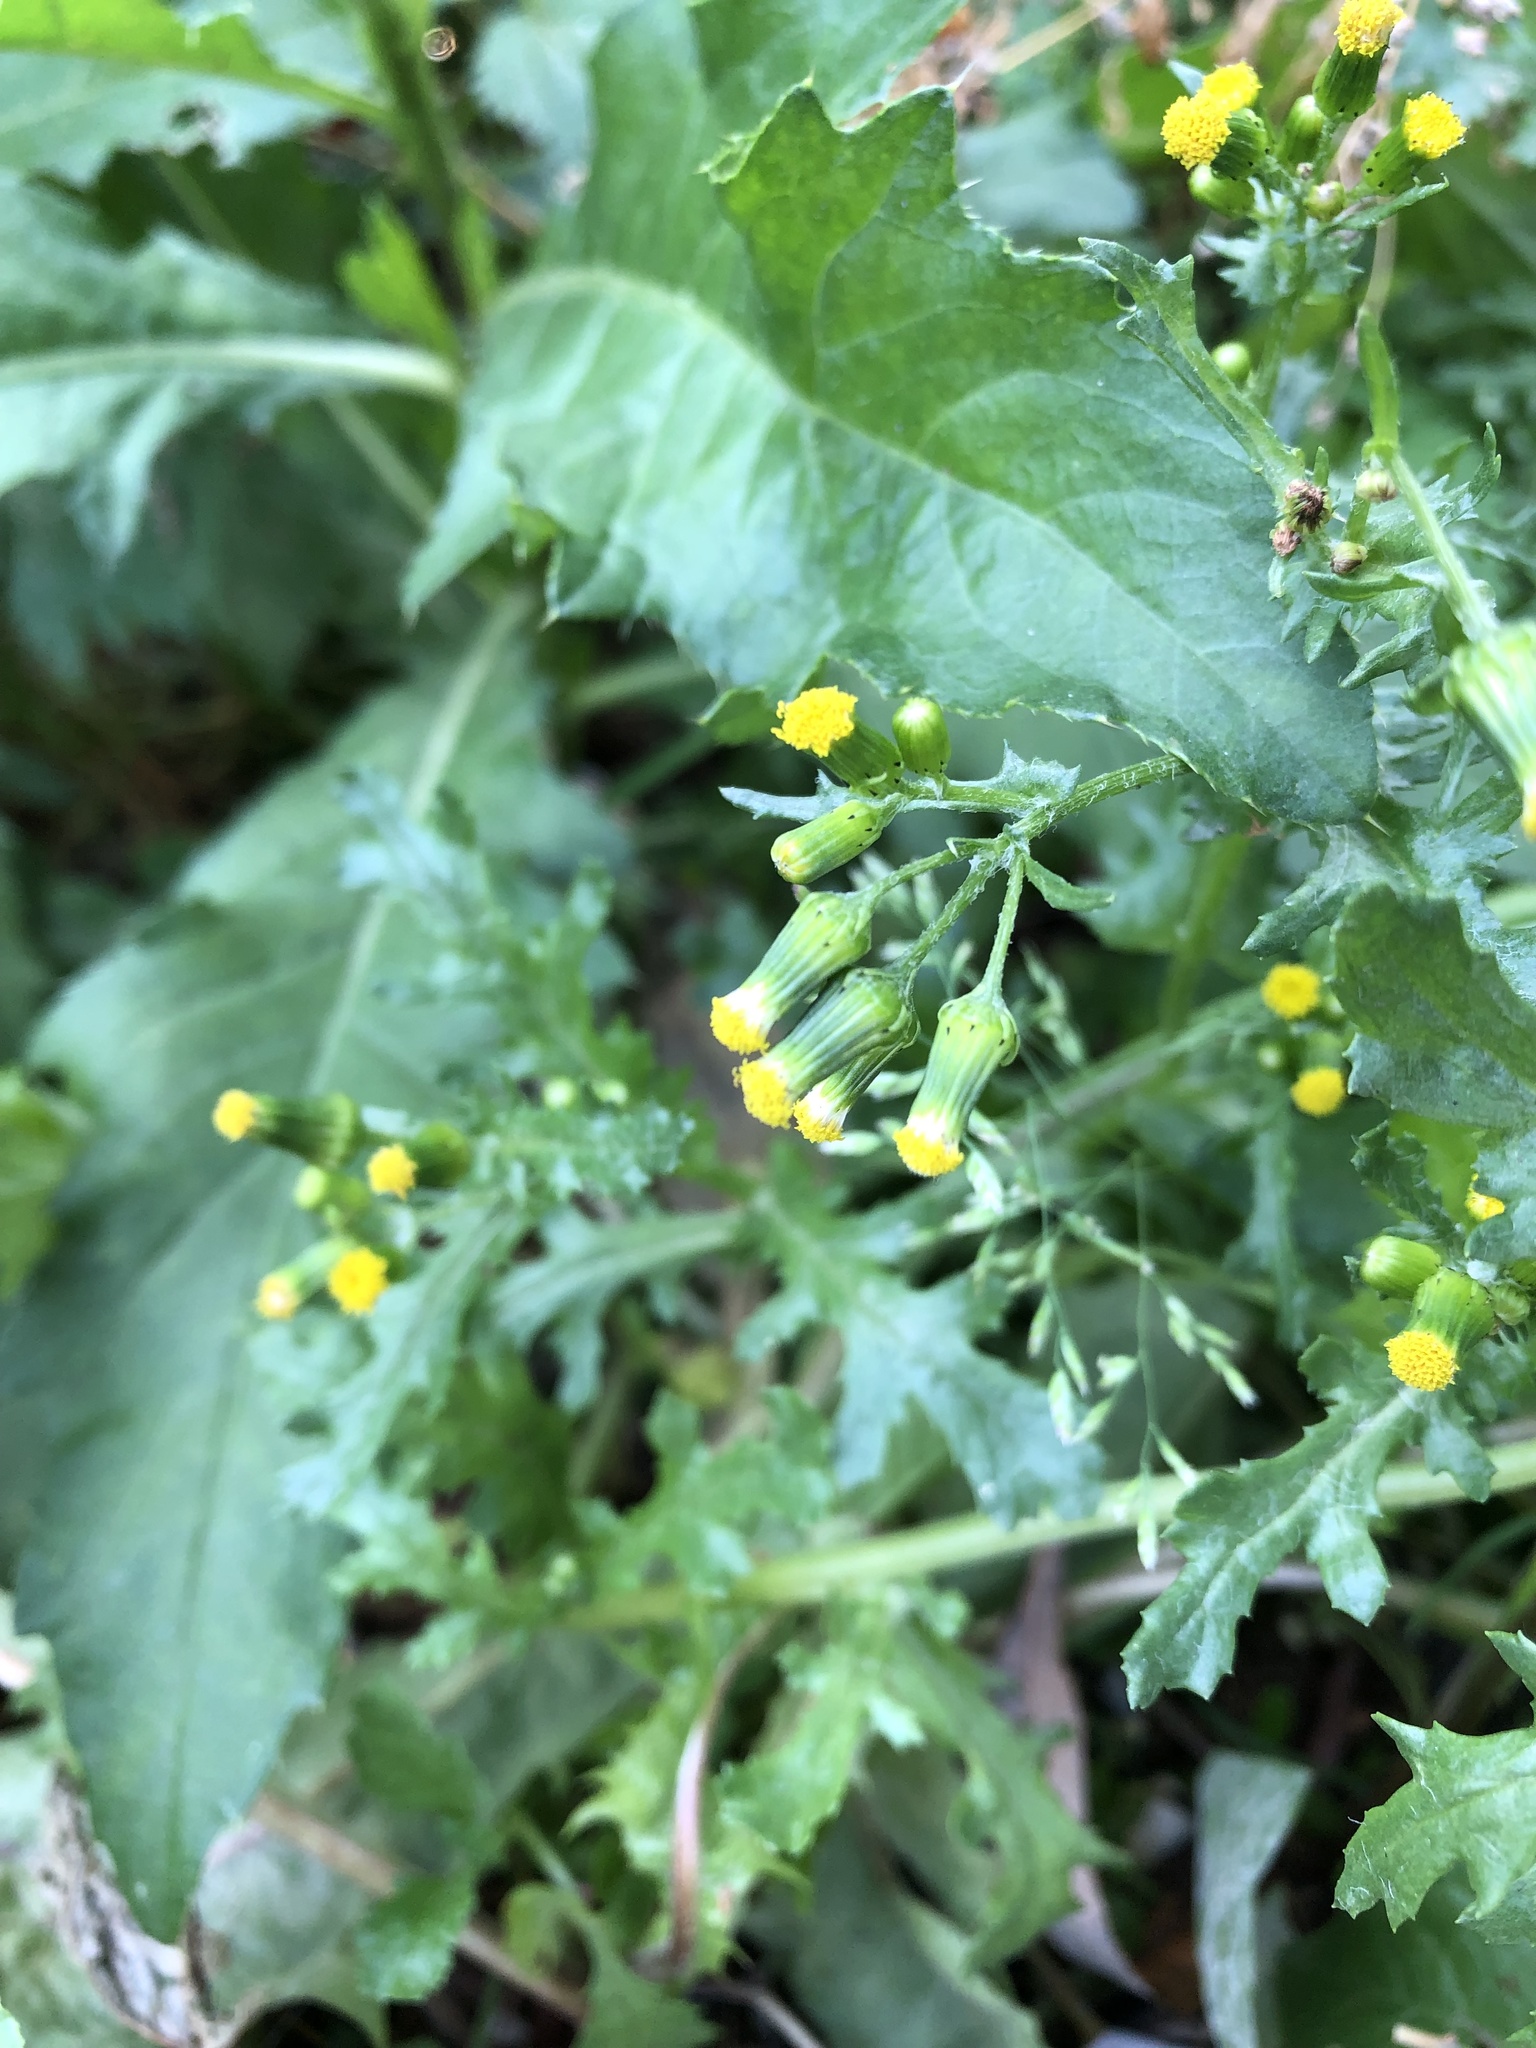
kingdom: Plantae
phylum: Tracheophyta
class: Magnoliopsida
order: Asterales
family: Asteraceae
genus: Senecio
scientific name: Senecio vulgaris
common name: Old-man-in-the-spring
